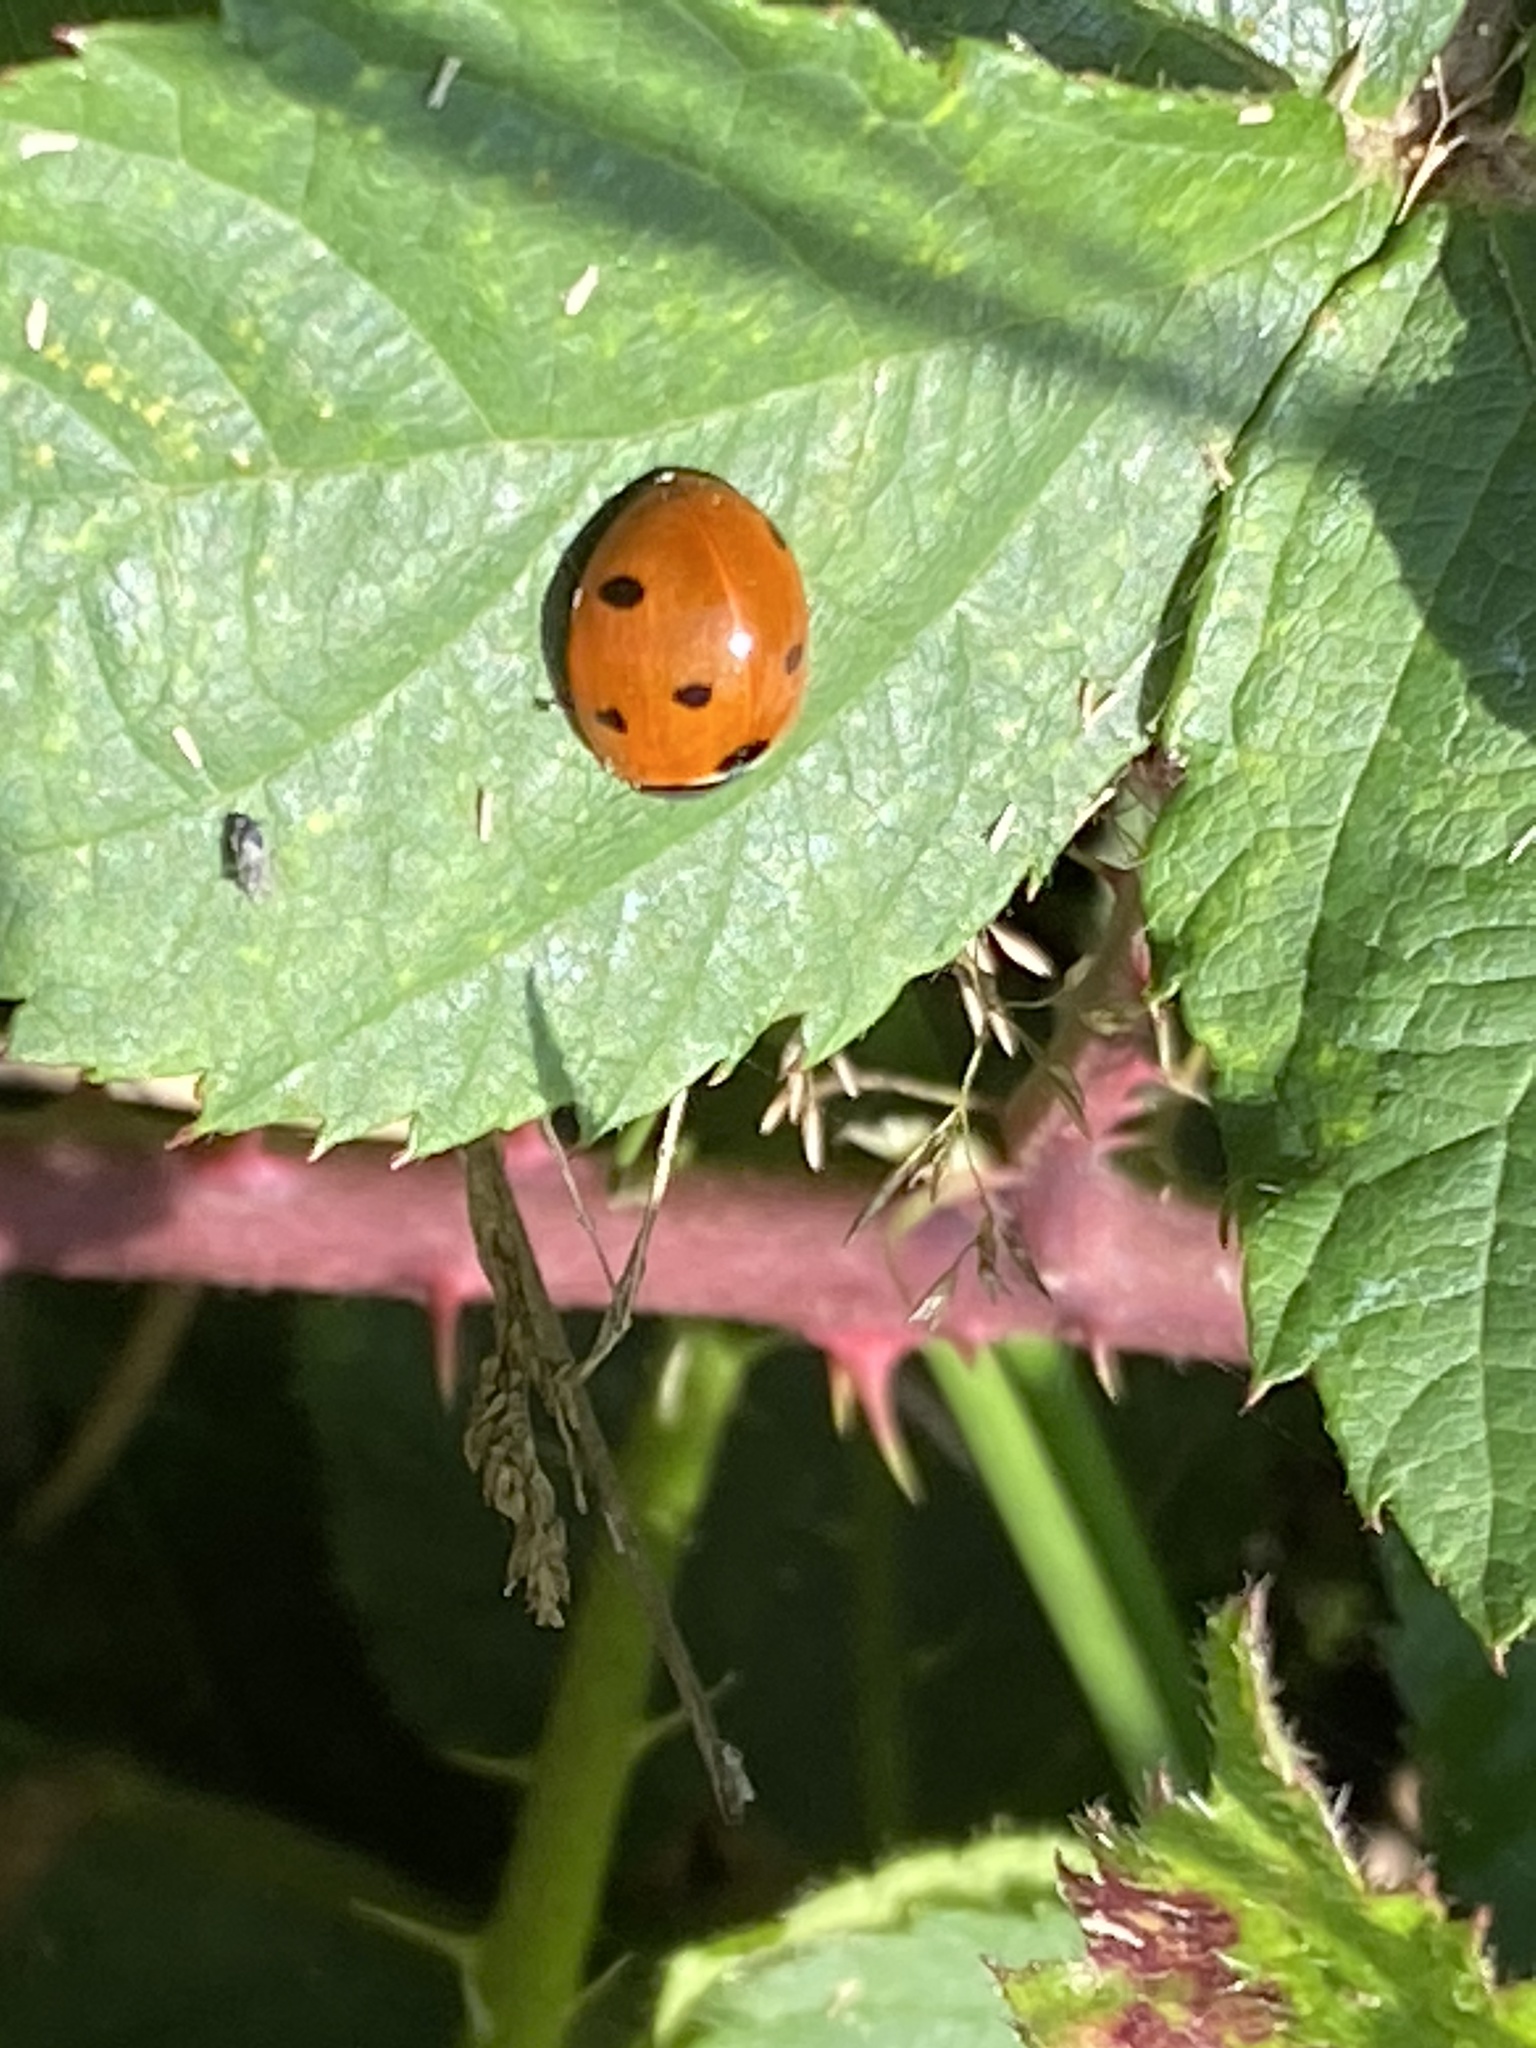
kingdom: Animalia
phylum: Arthropoda
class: Insecta
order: Coleoptera
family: Coccinellidae
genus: Coccinella
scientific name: Coccinella septempunctata
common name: Sevenspotted lady beetle
